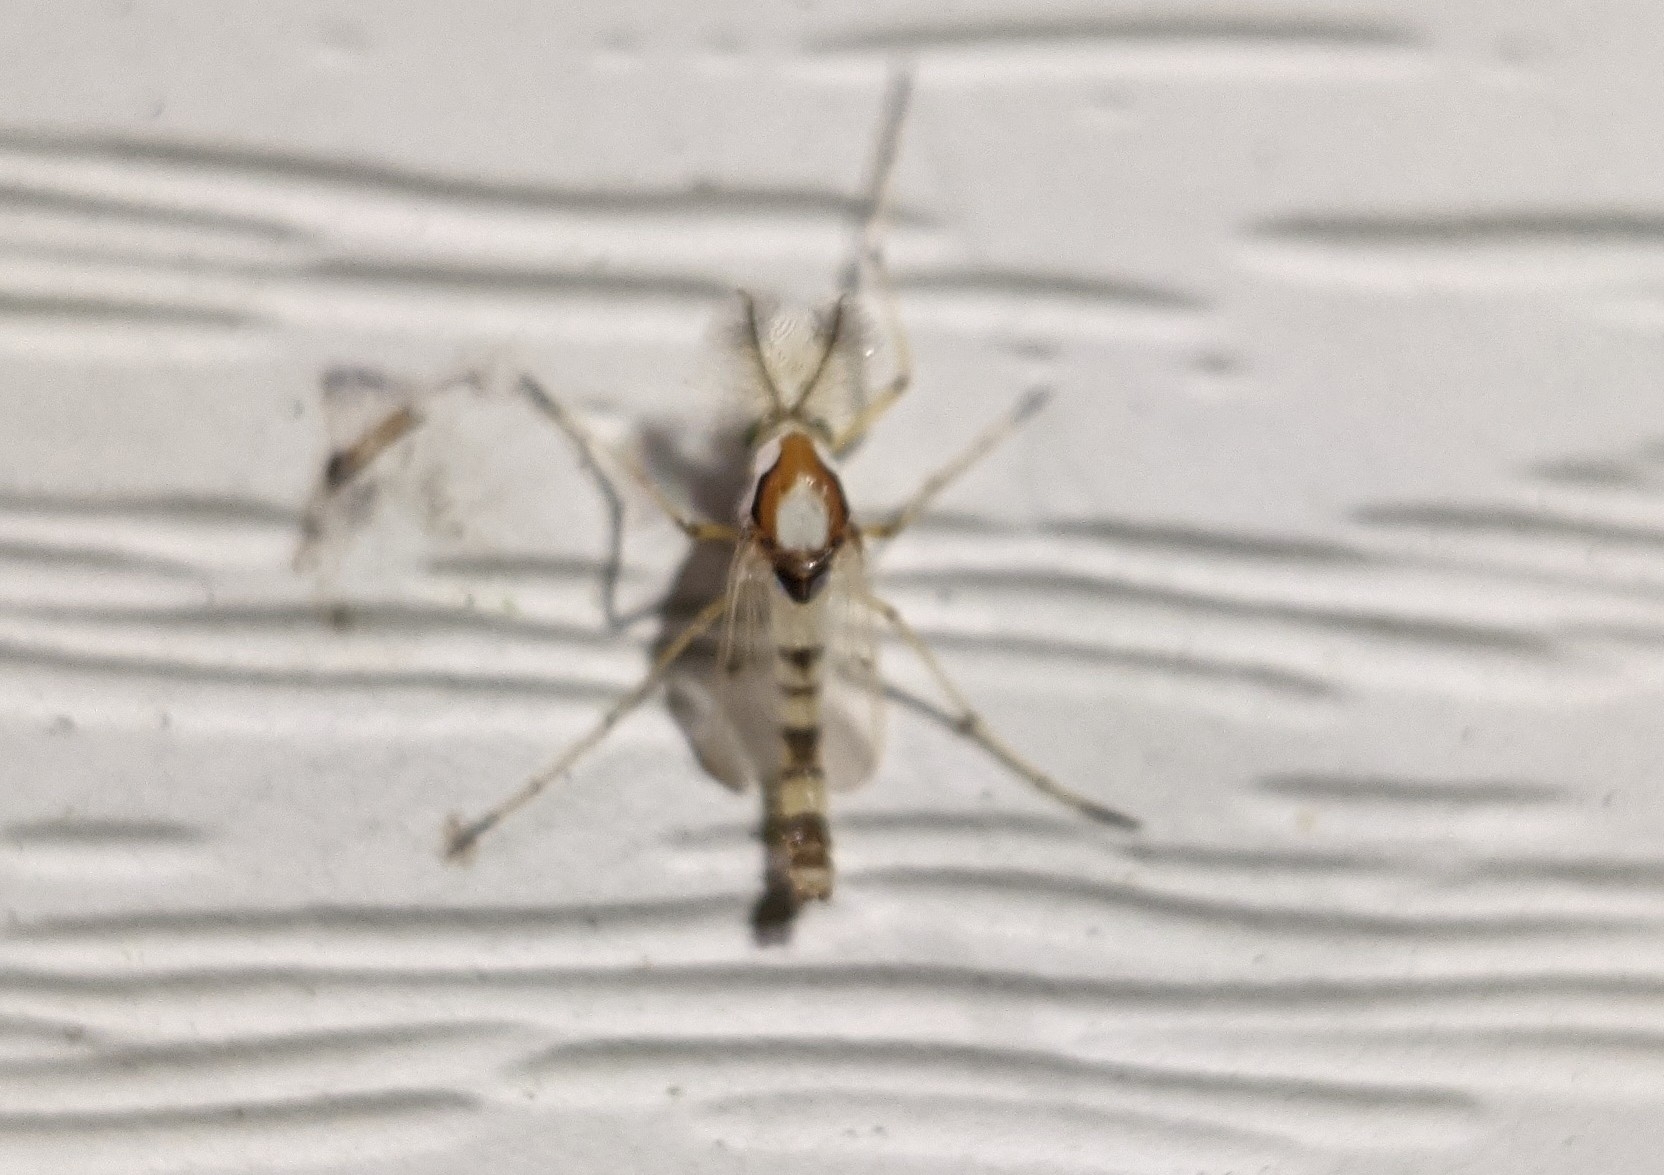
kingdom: Animalia
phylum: Arthropoda
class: Insecta
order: Diptera
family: Chironomidae
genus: Coelotanypus
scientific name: Coelotanypus tricolor
